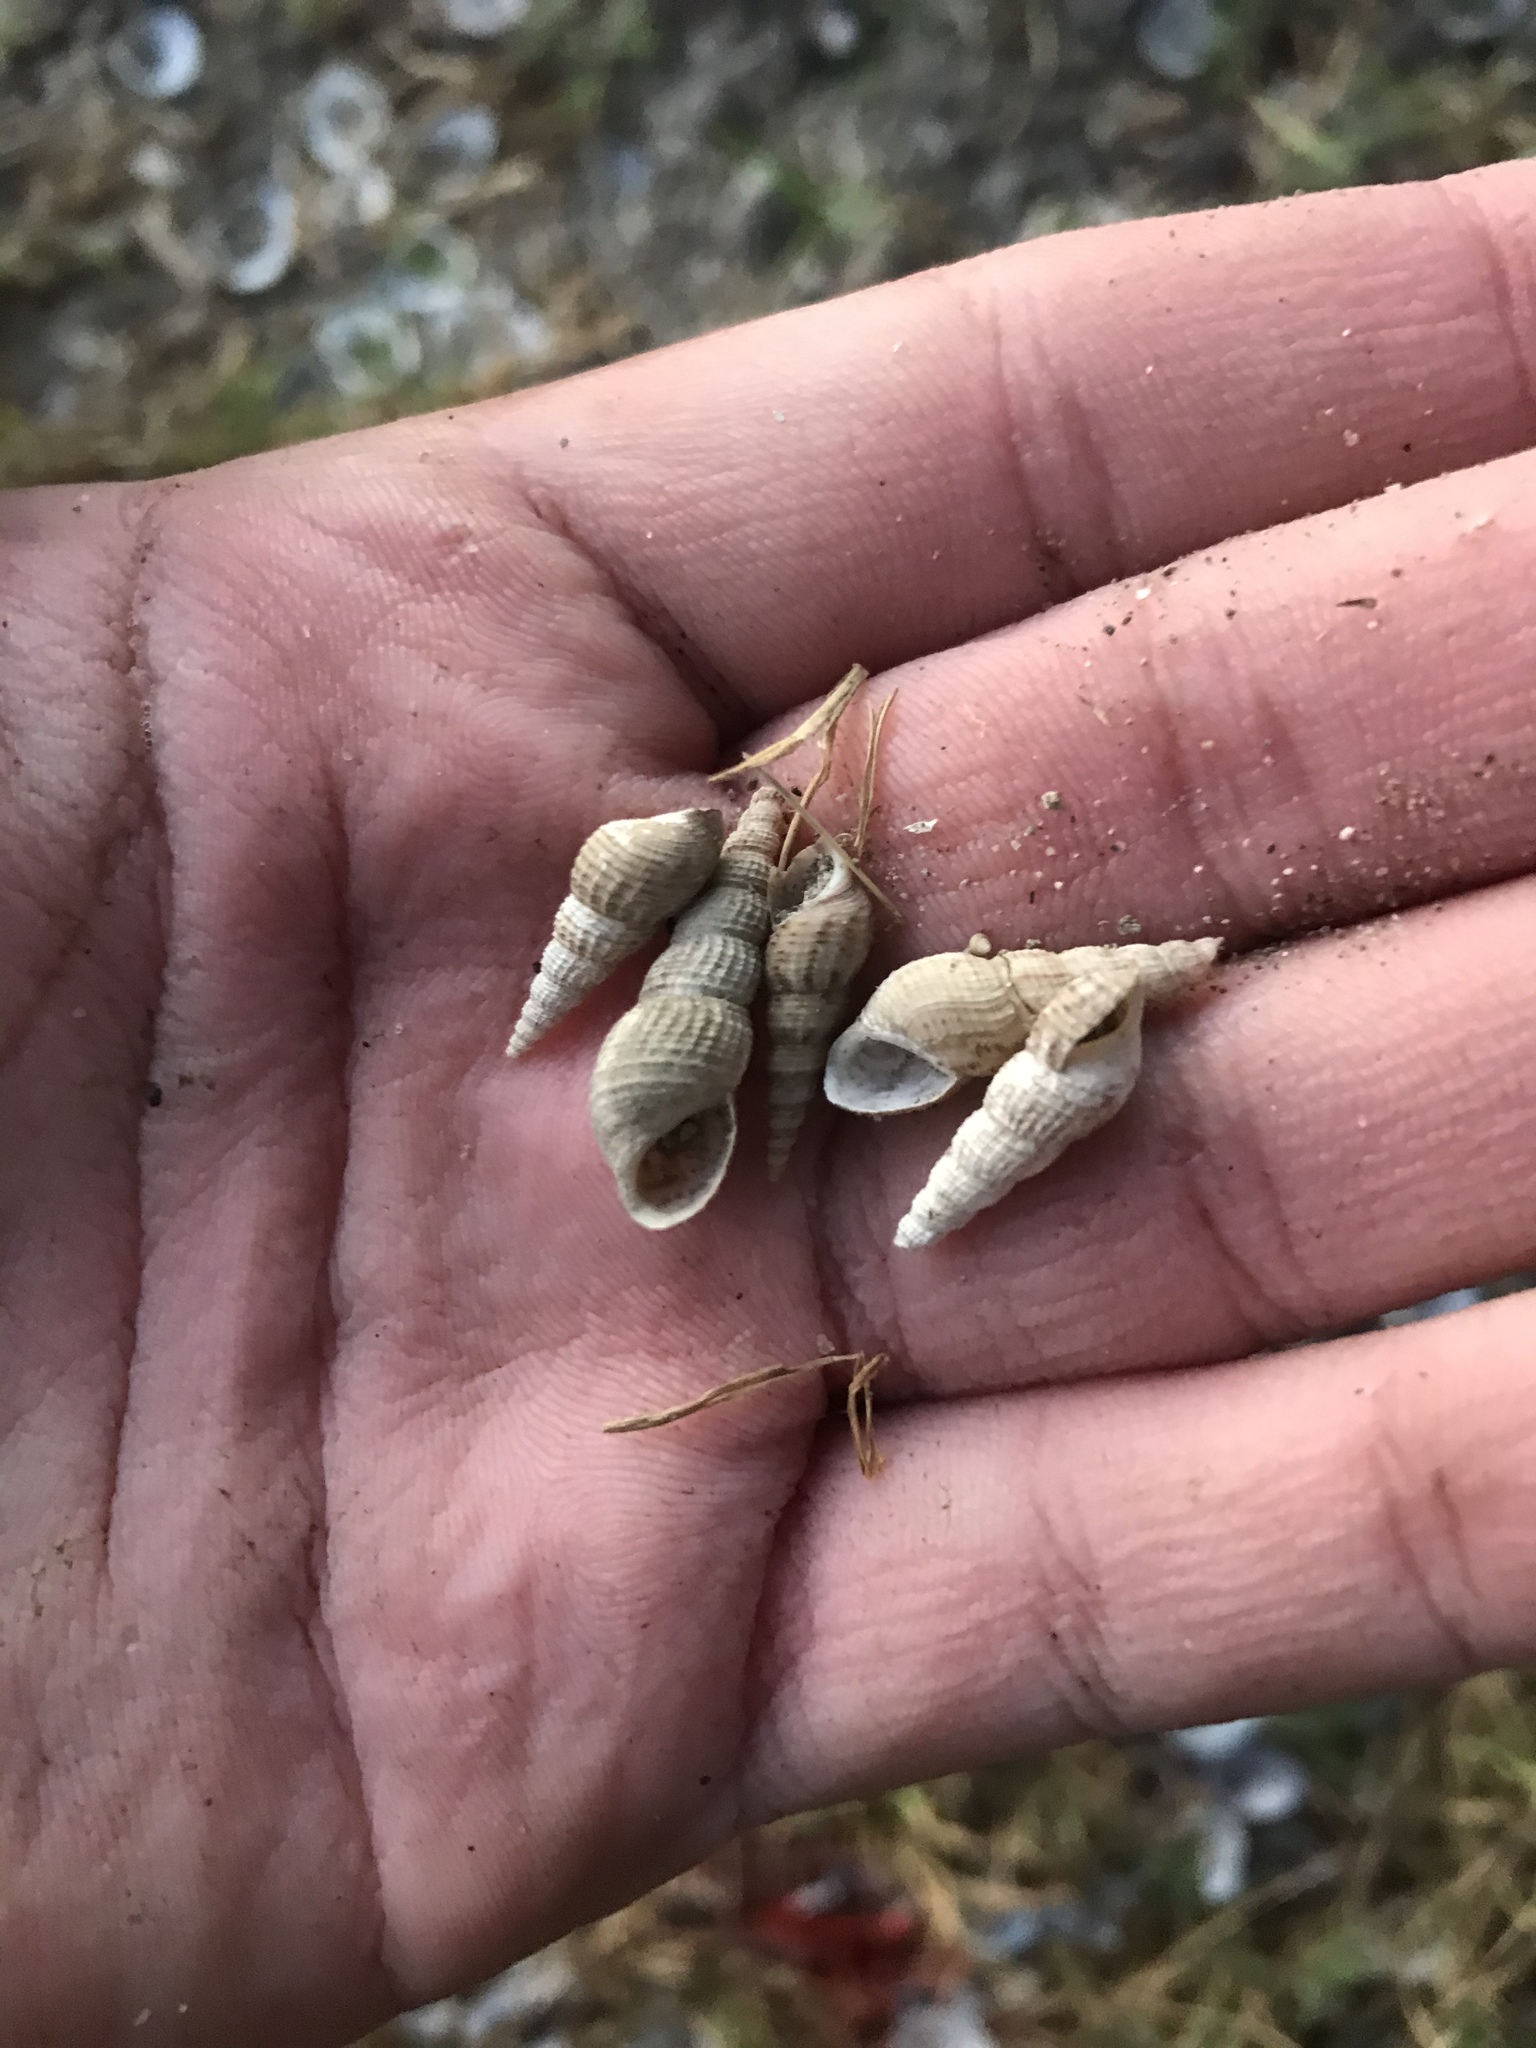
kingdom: Animalia
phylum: Mollusca
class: Gastropoda
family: Thiaridae
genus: Melanoides
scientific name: Melanoides tuberculata
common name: Red-rim melania
